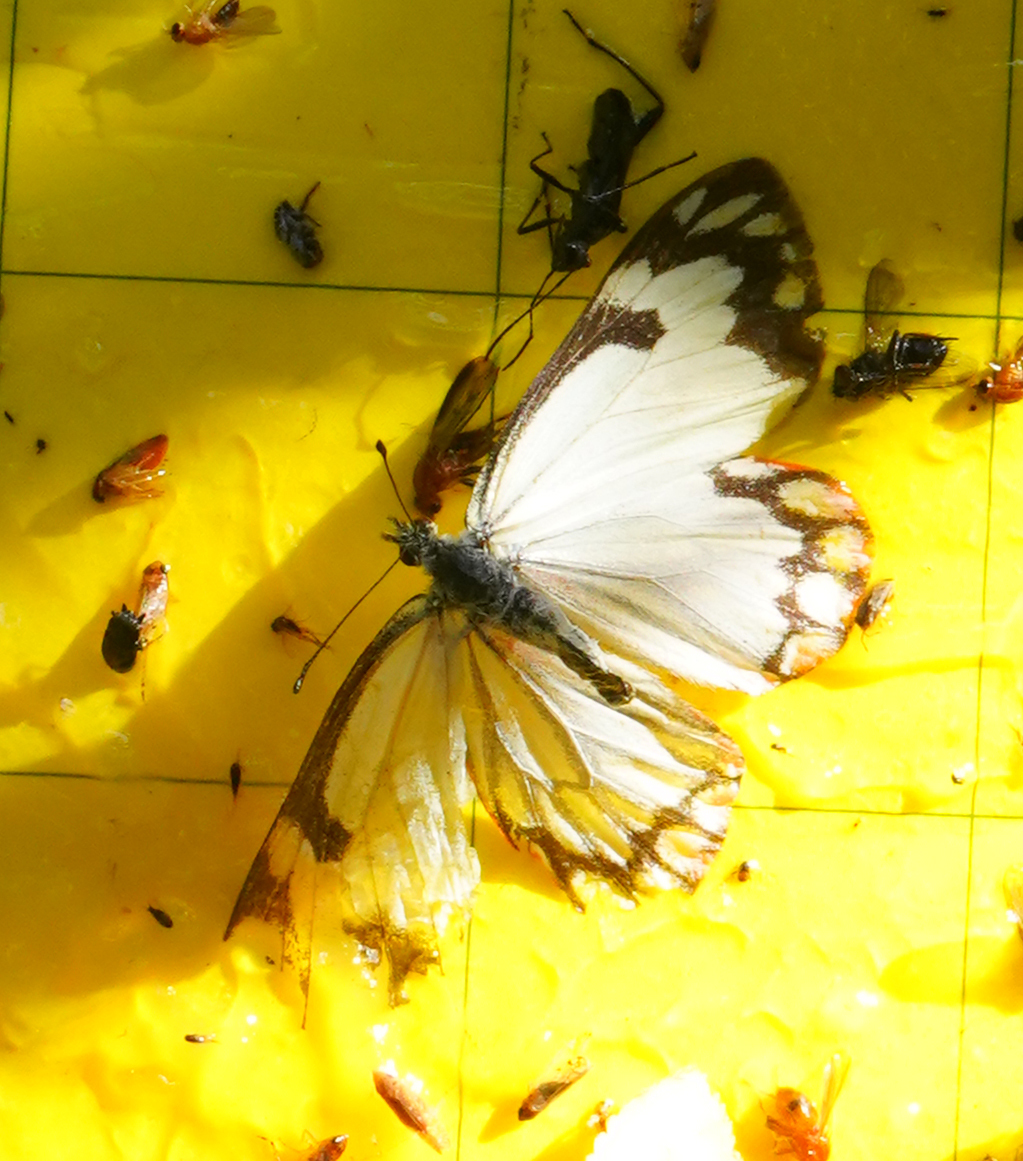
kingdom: Animalia
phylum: Arthropoda
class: Insecta
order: Lepidoptera
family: Pieridae
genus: Neophasia
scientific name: Neophasia menapia
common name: Pine white
